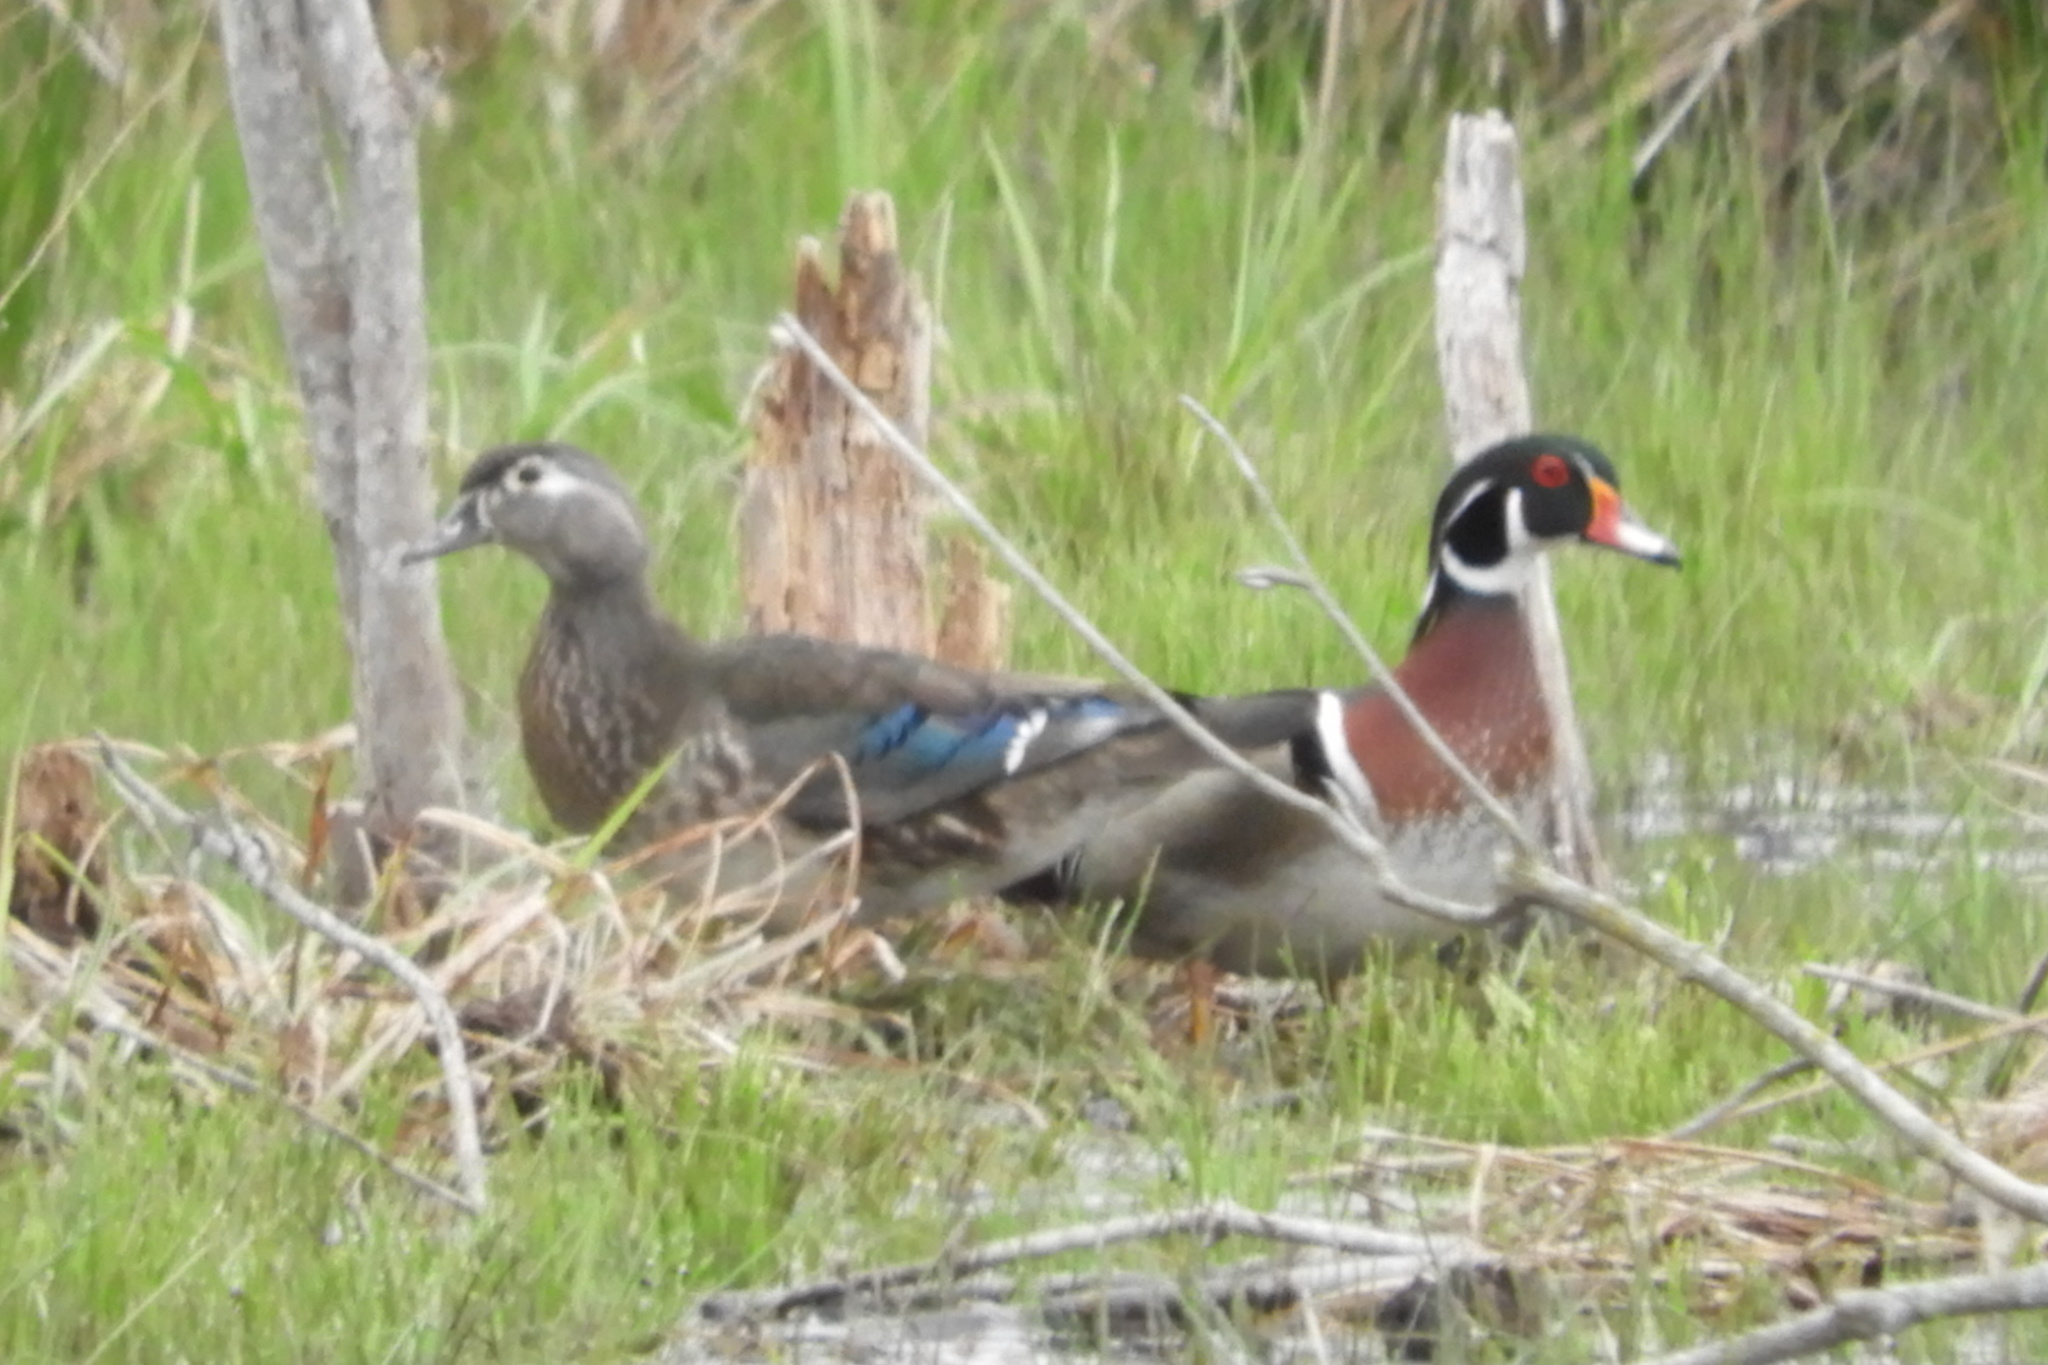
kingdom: Animalia
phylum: Chordata
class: Aves
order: Anseriformes
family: Anatidae
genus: Aix
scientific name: Aix sponsa
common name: Wood duck
